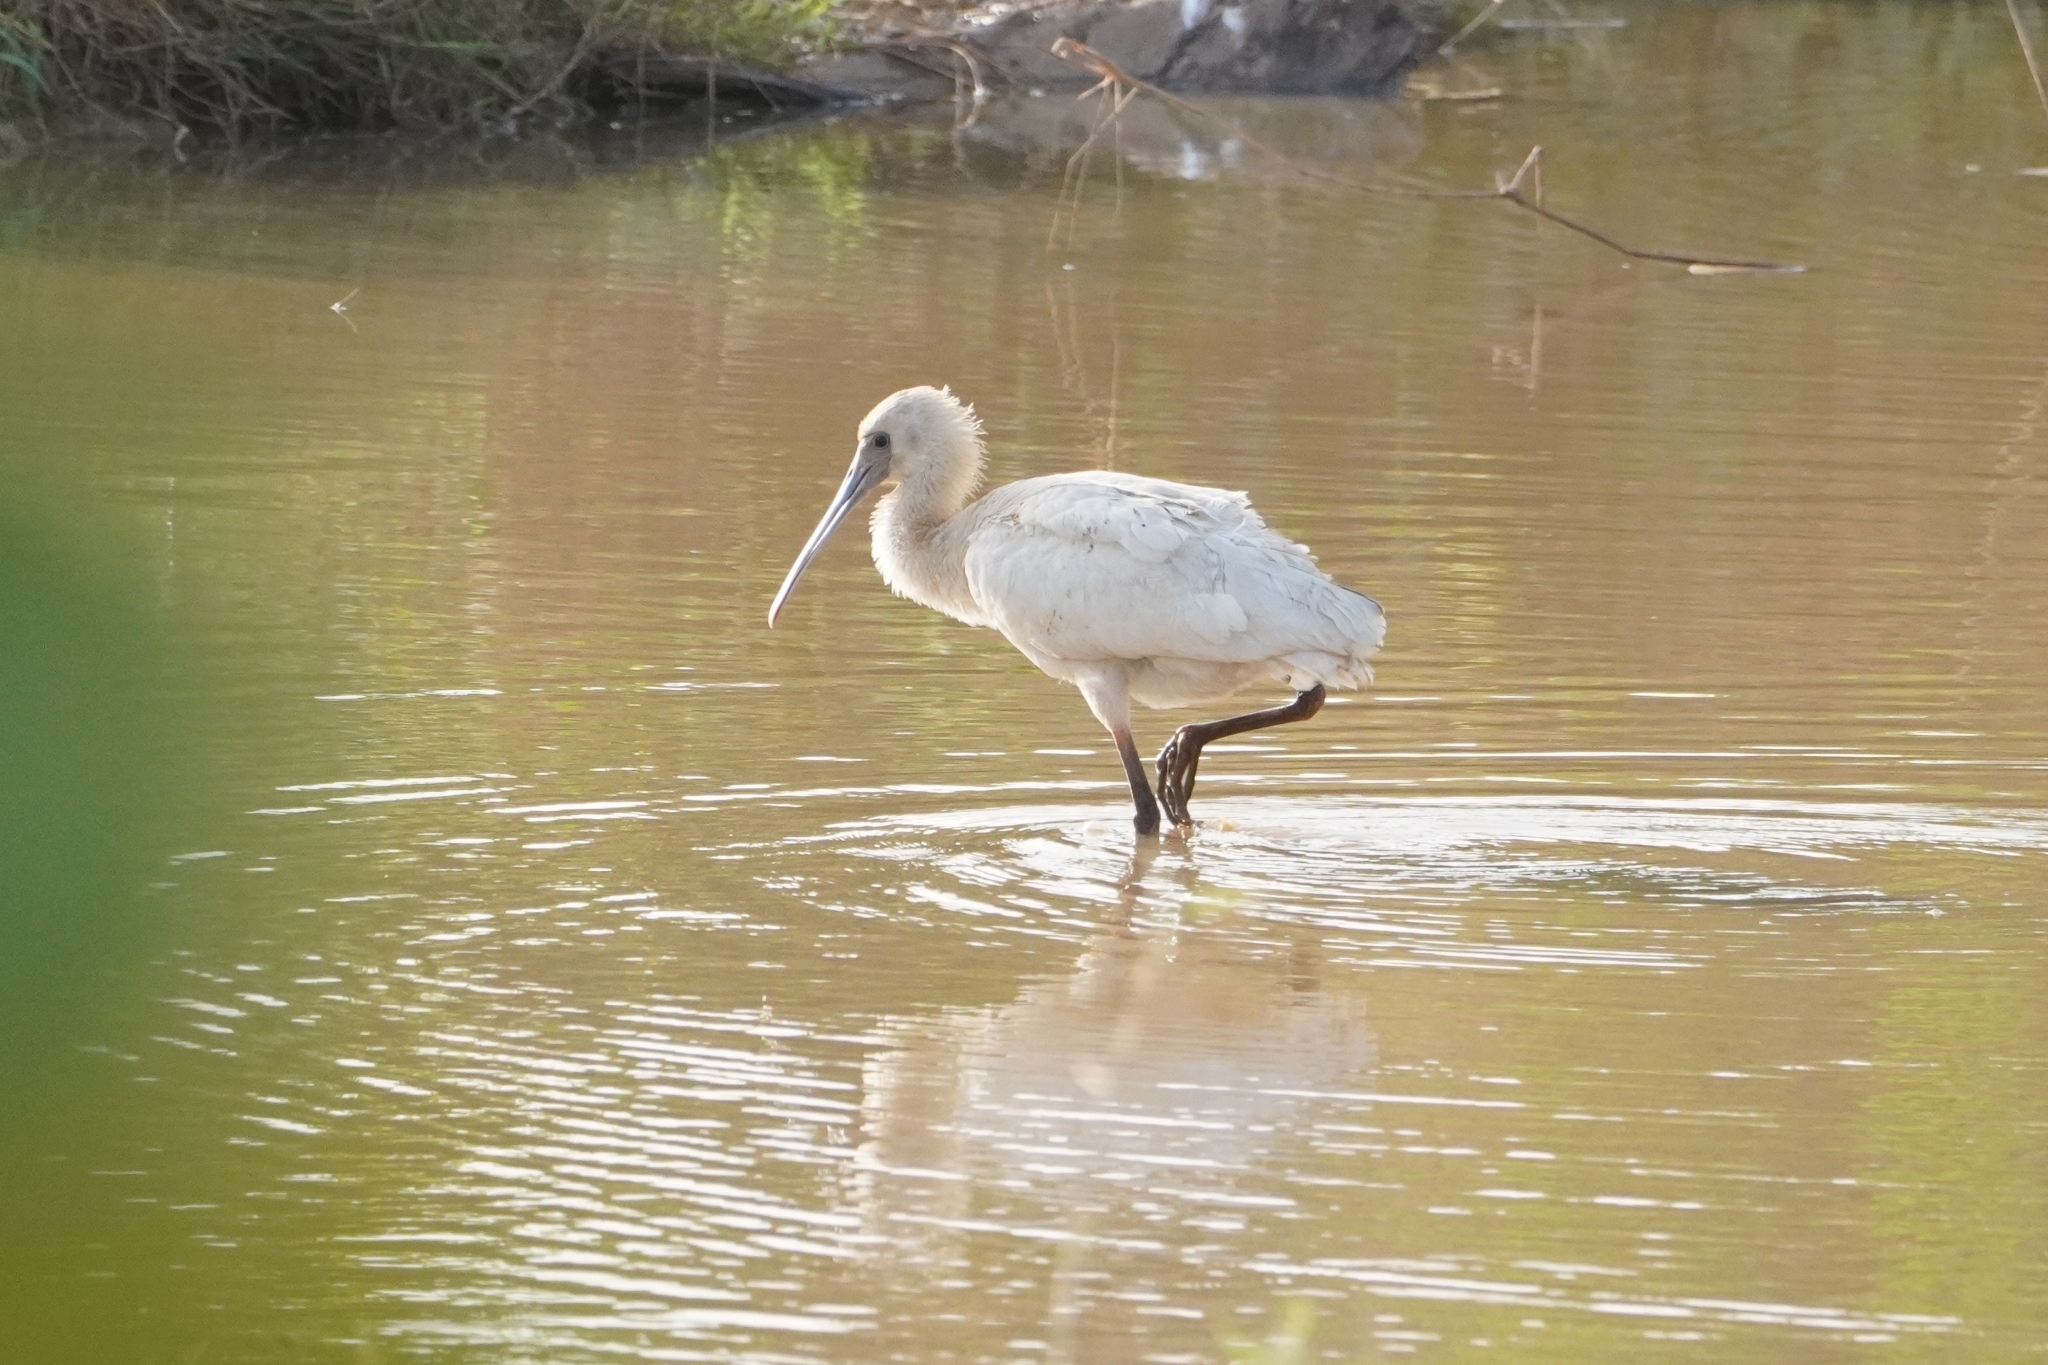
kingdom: Animalia
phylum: Chordata
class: Aves
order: Pelecaniformes
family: Threskiornithidae
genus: Platalea
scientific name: Platalea alba
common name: African spoonbill
